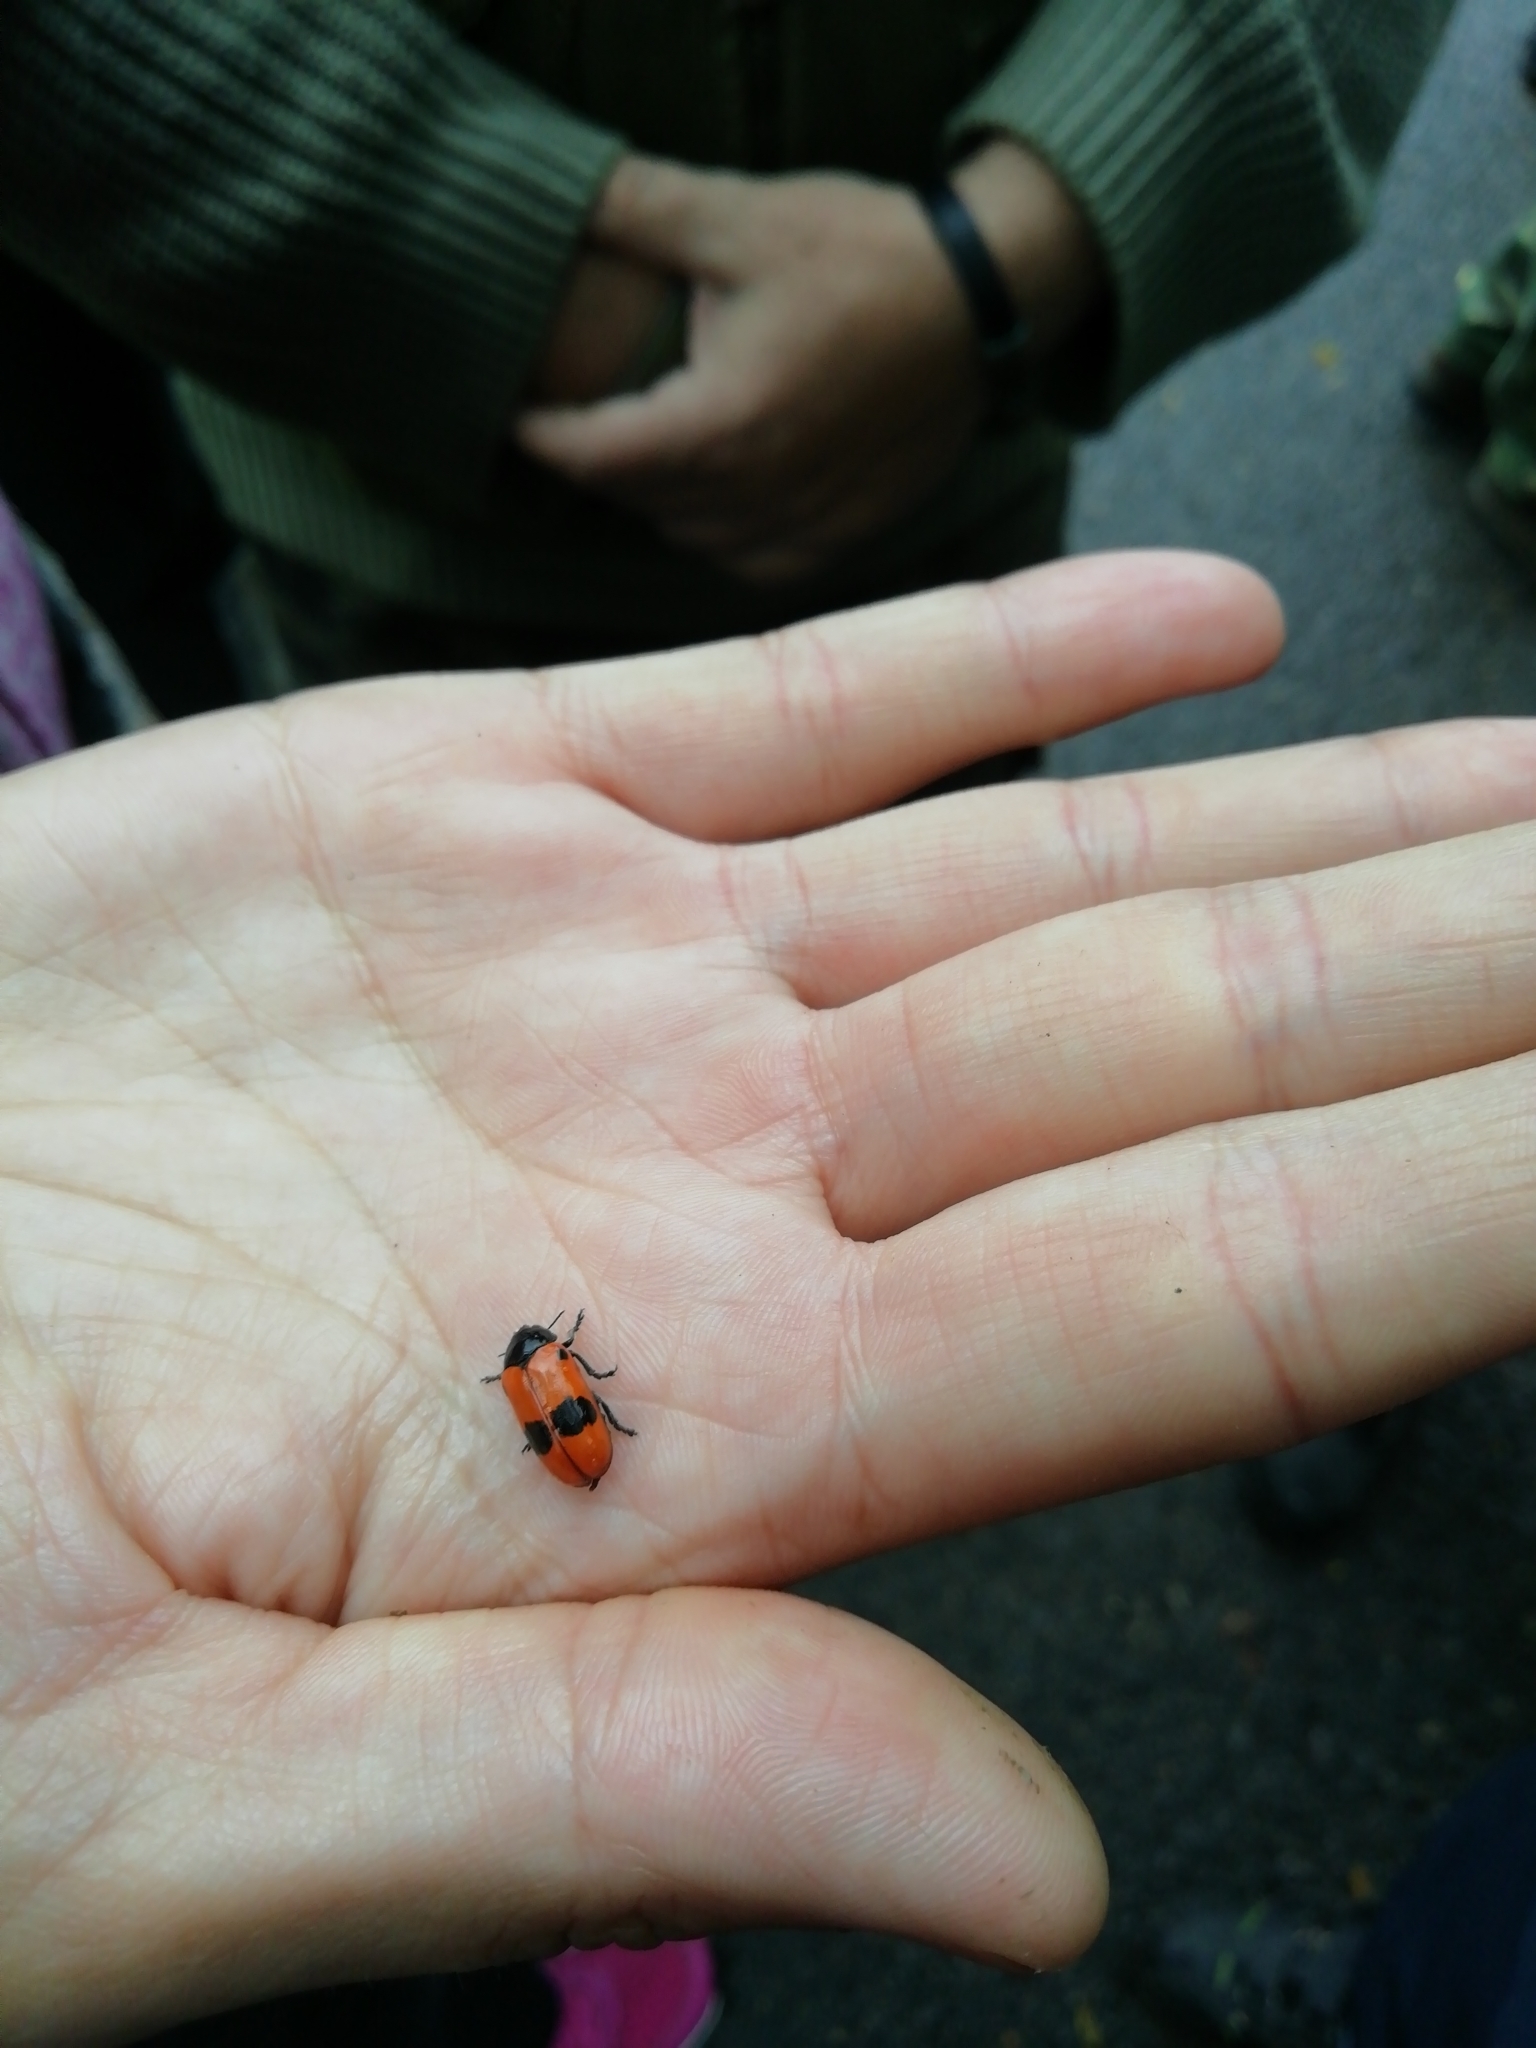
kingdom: Animalia
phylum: Arthropoda
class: Insecta
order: Coleoptera
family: Chrysomelidae
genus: Clytra
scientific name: Clytra laeviuscula
